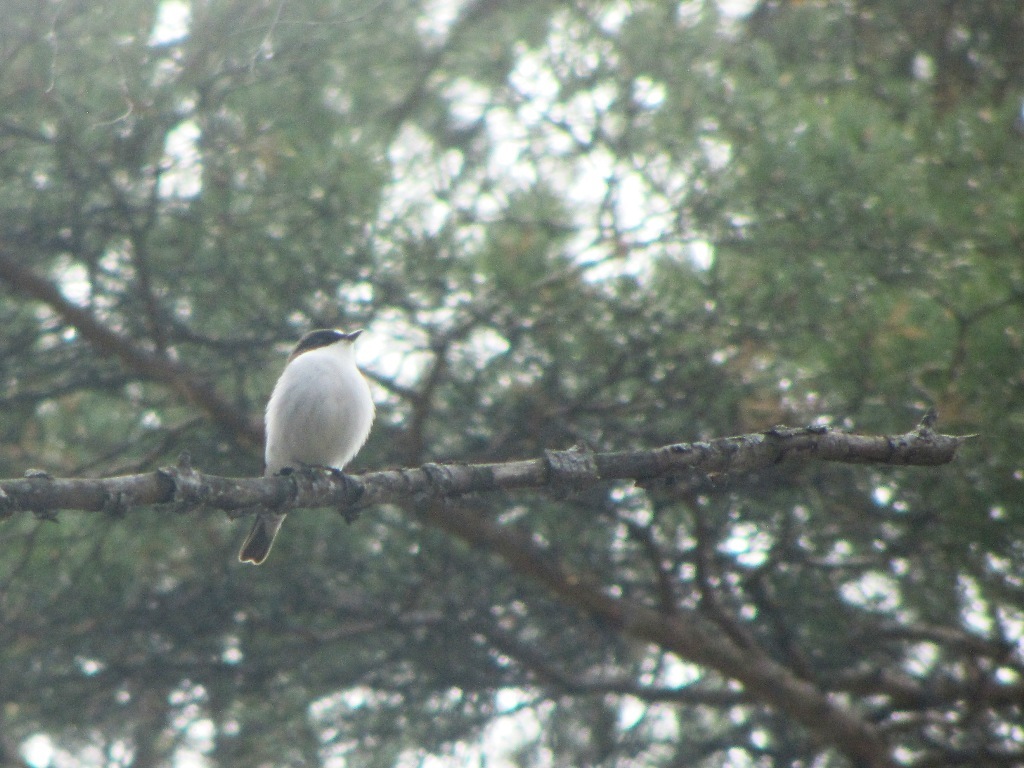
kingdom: Animalia
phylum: Chordata
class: Aves
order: Passeriformes
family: Muscicapidae
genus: Ficedula
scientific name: Ficedula hypoleuca
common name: European pied flycatcher
